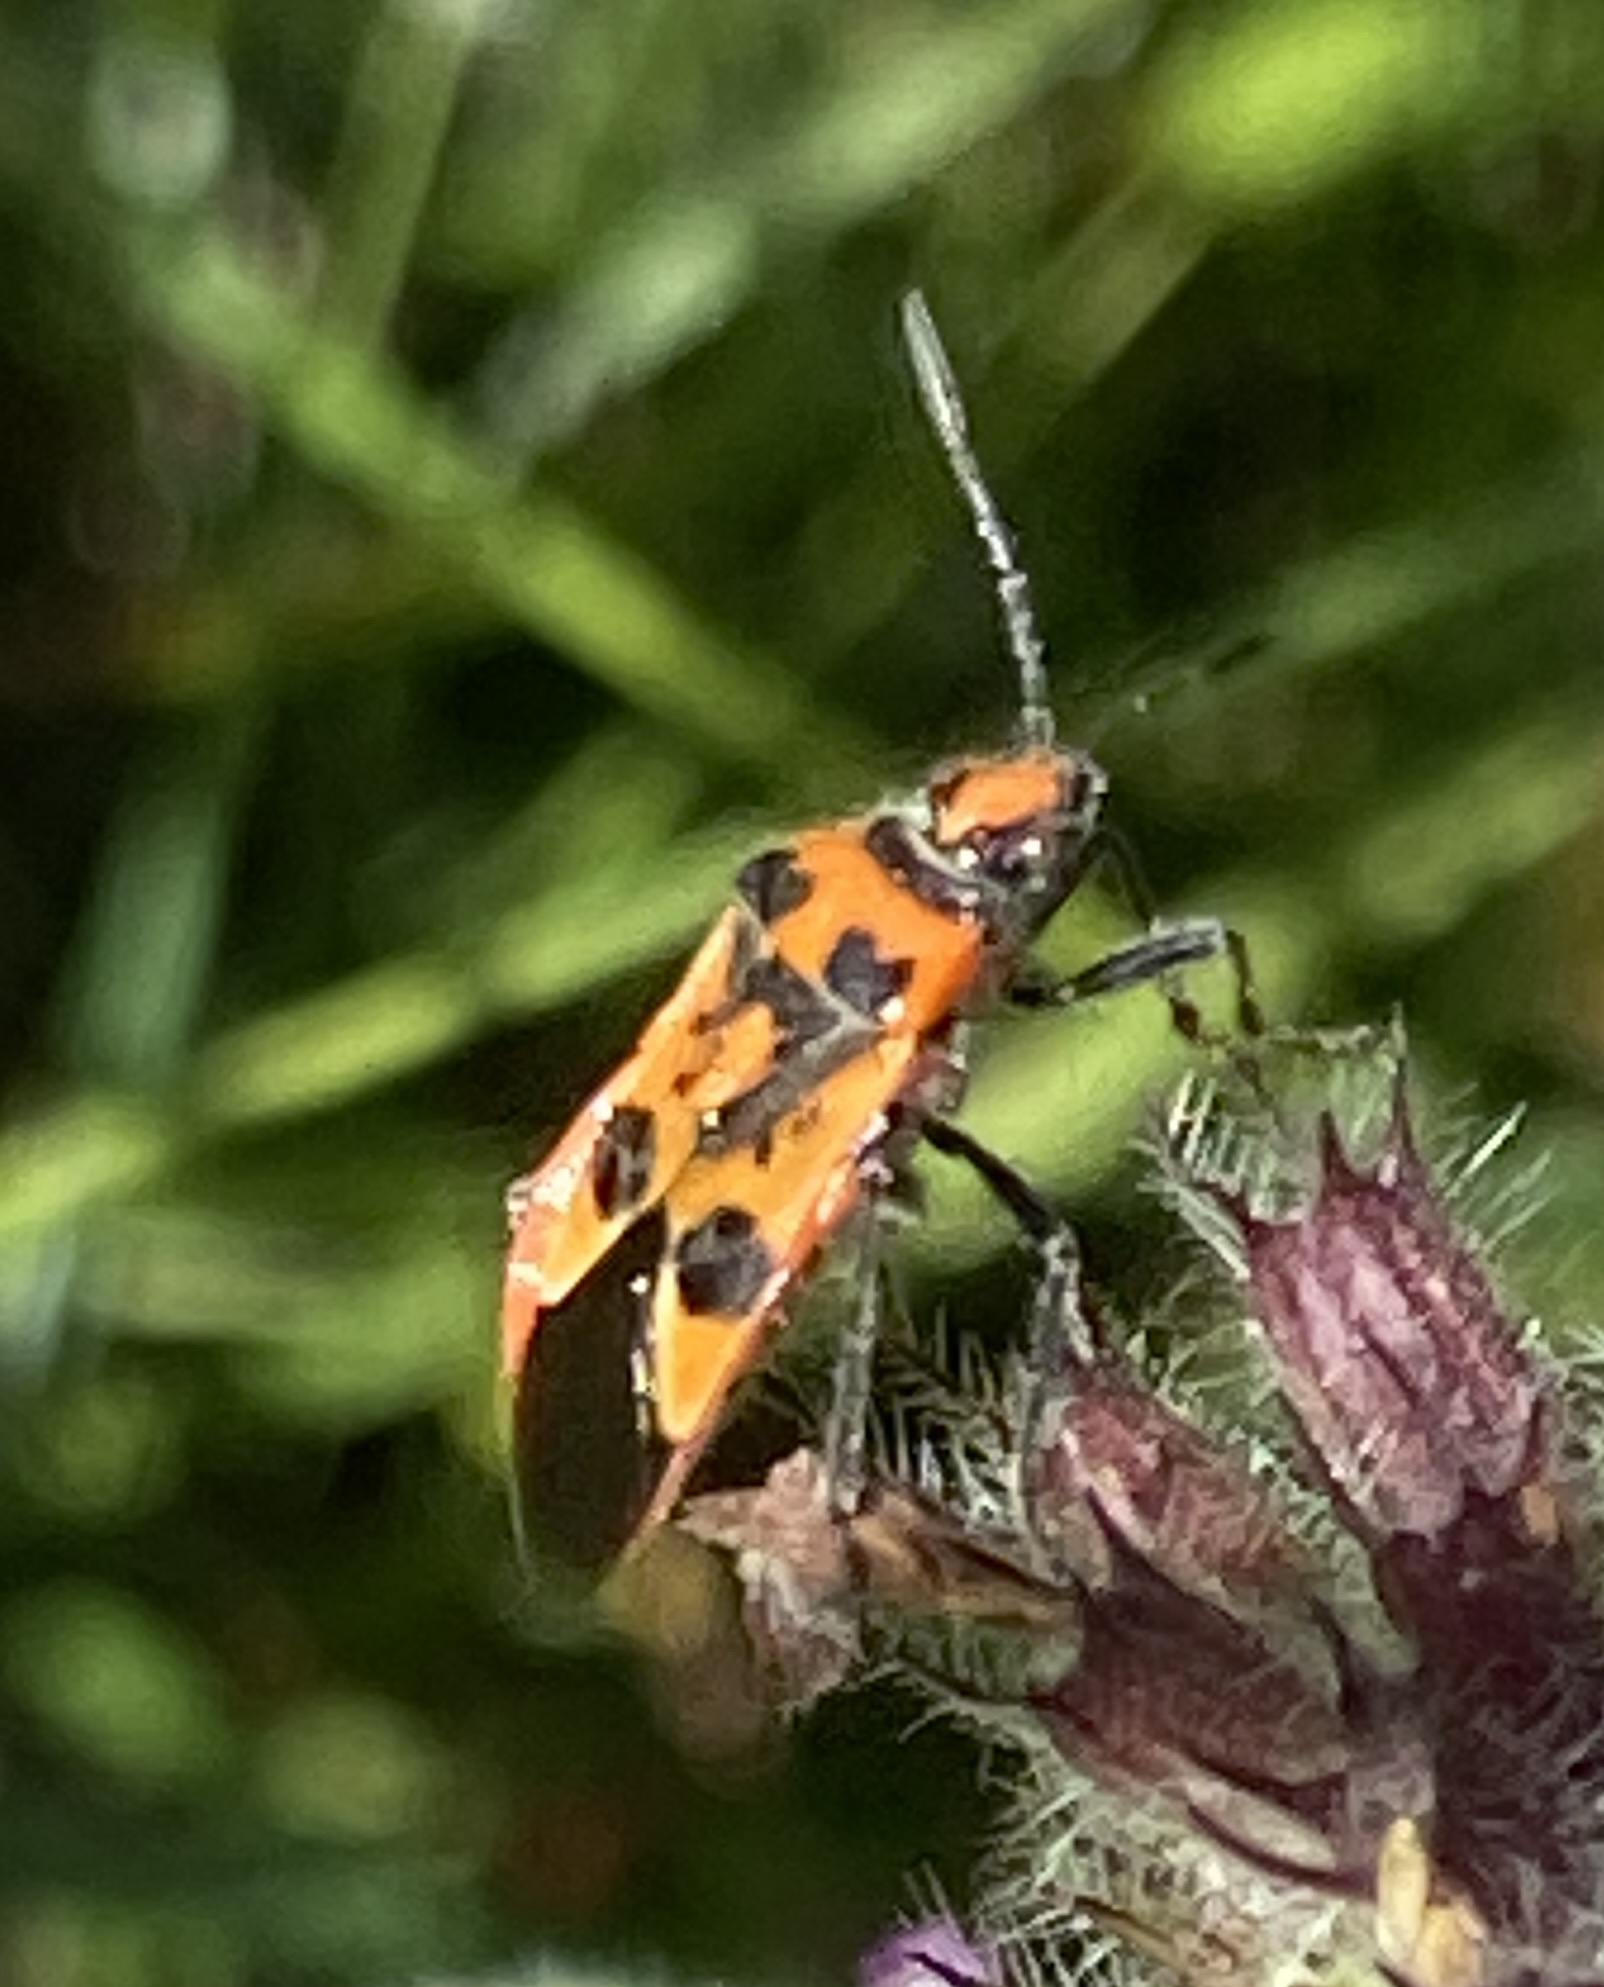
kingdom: Animalia
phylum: Arthropoda
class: Insecta
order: Hemiptera
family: Rhopalidae
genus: Corizus
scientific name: Corizus hyoscyami
